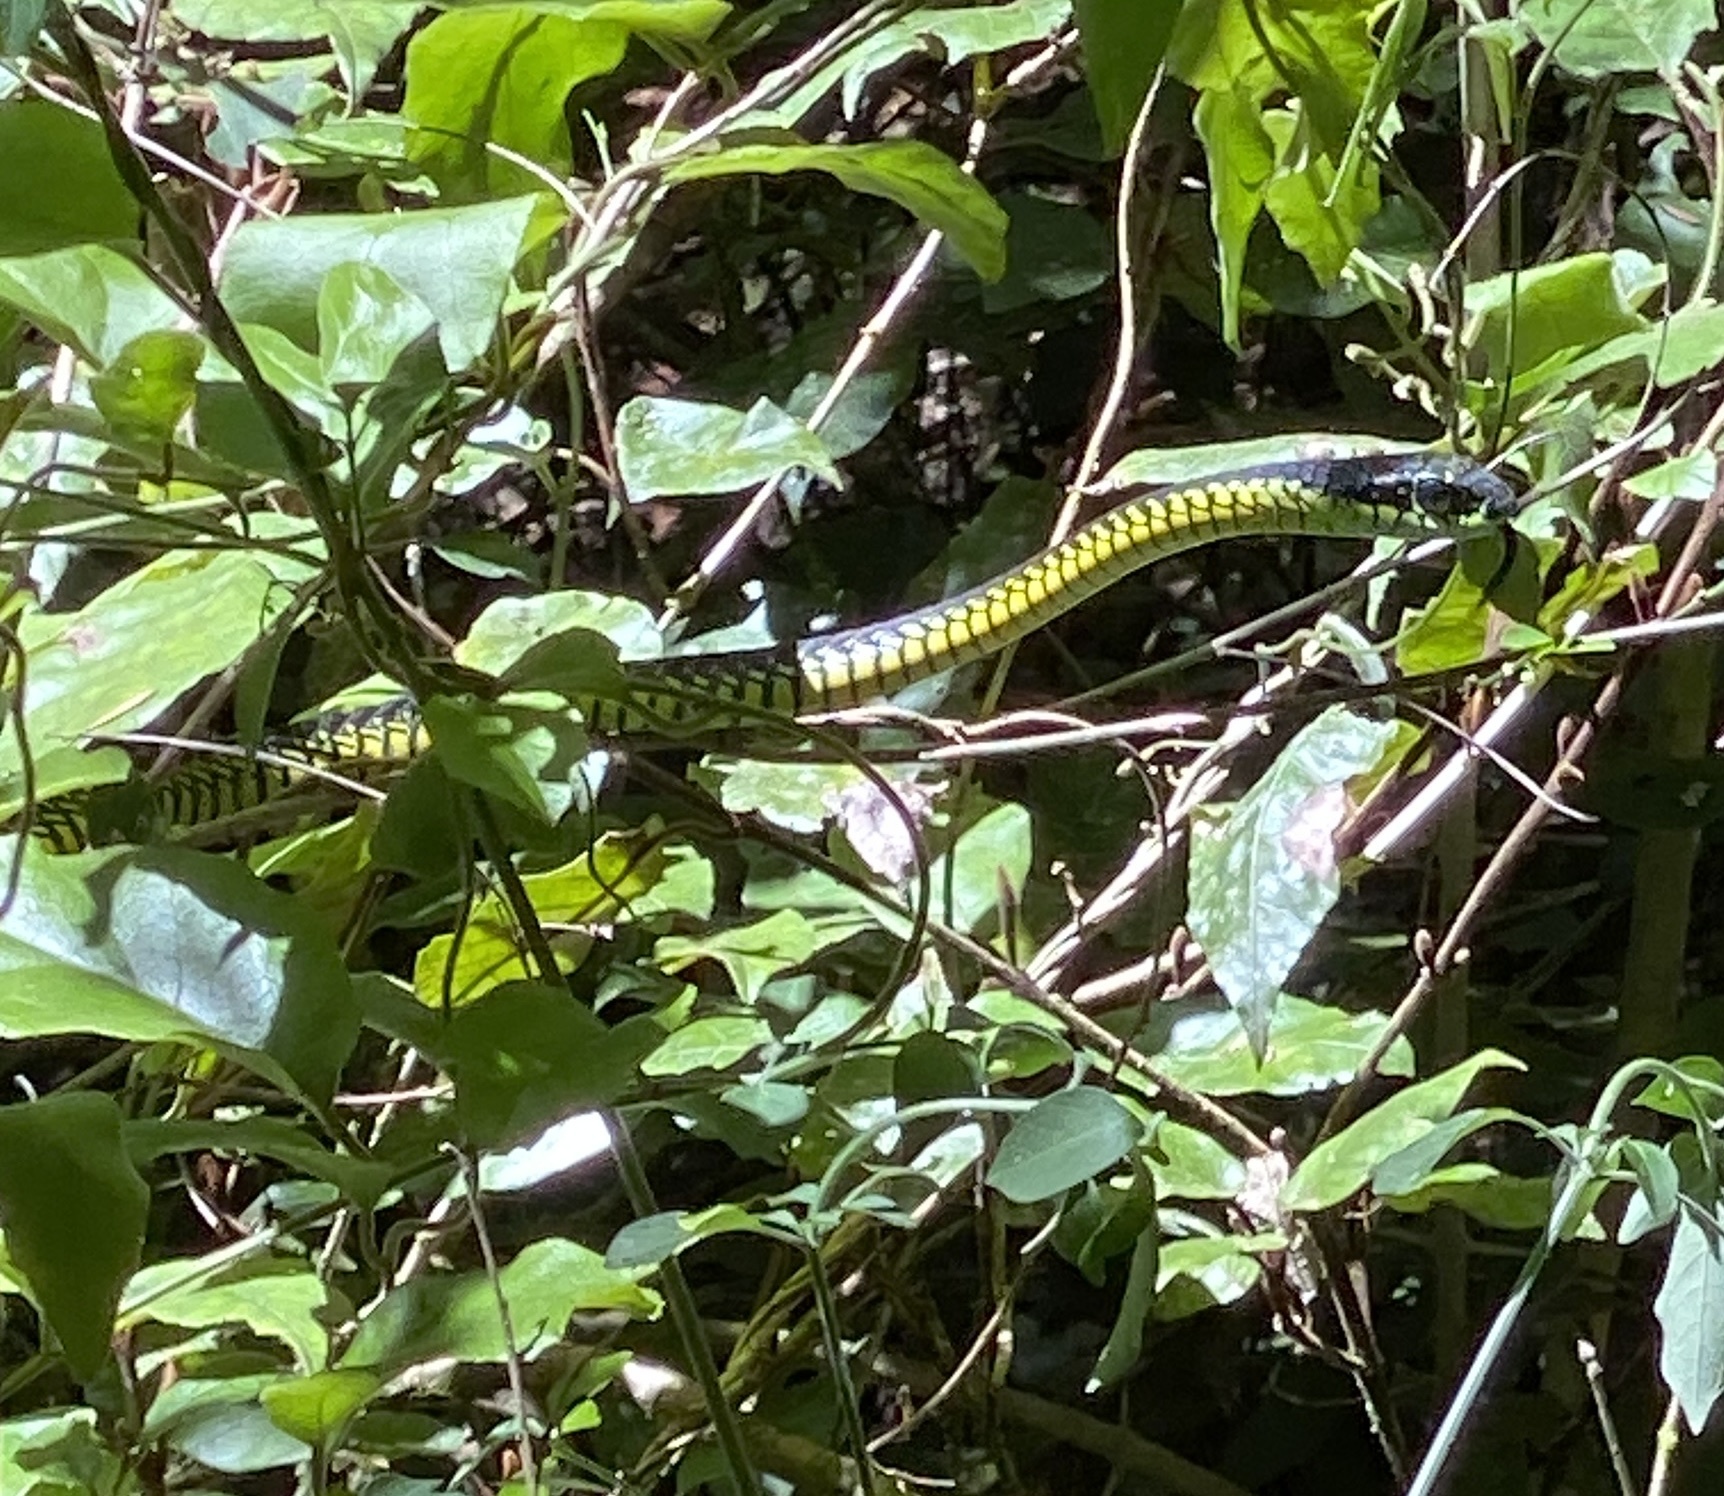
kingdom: Animalia
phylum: Chordata
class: Squamata
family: Colubridae
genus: Dispholidus
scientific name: Dispholidus typus
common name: Boomslang
